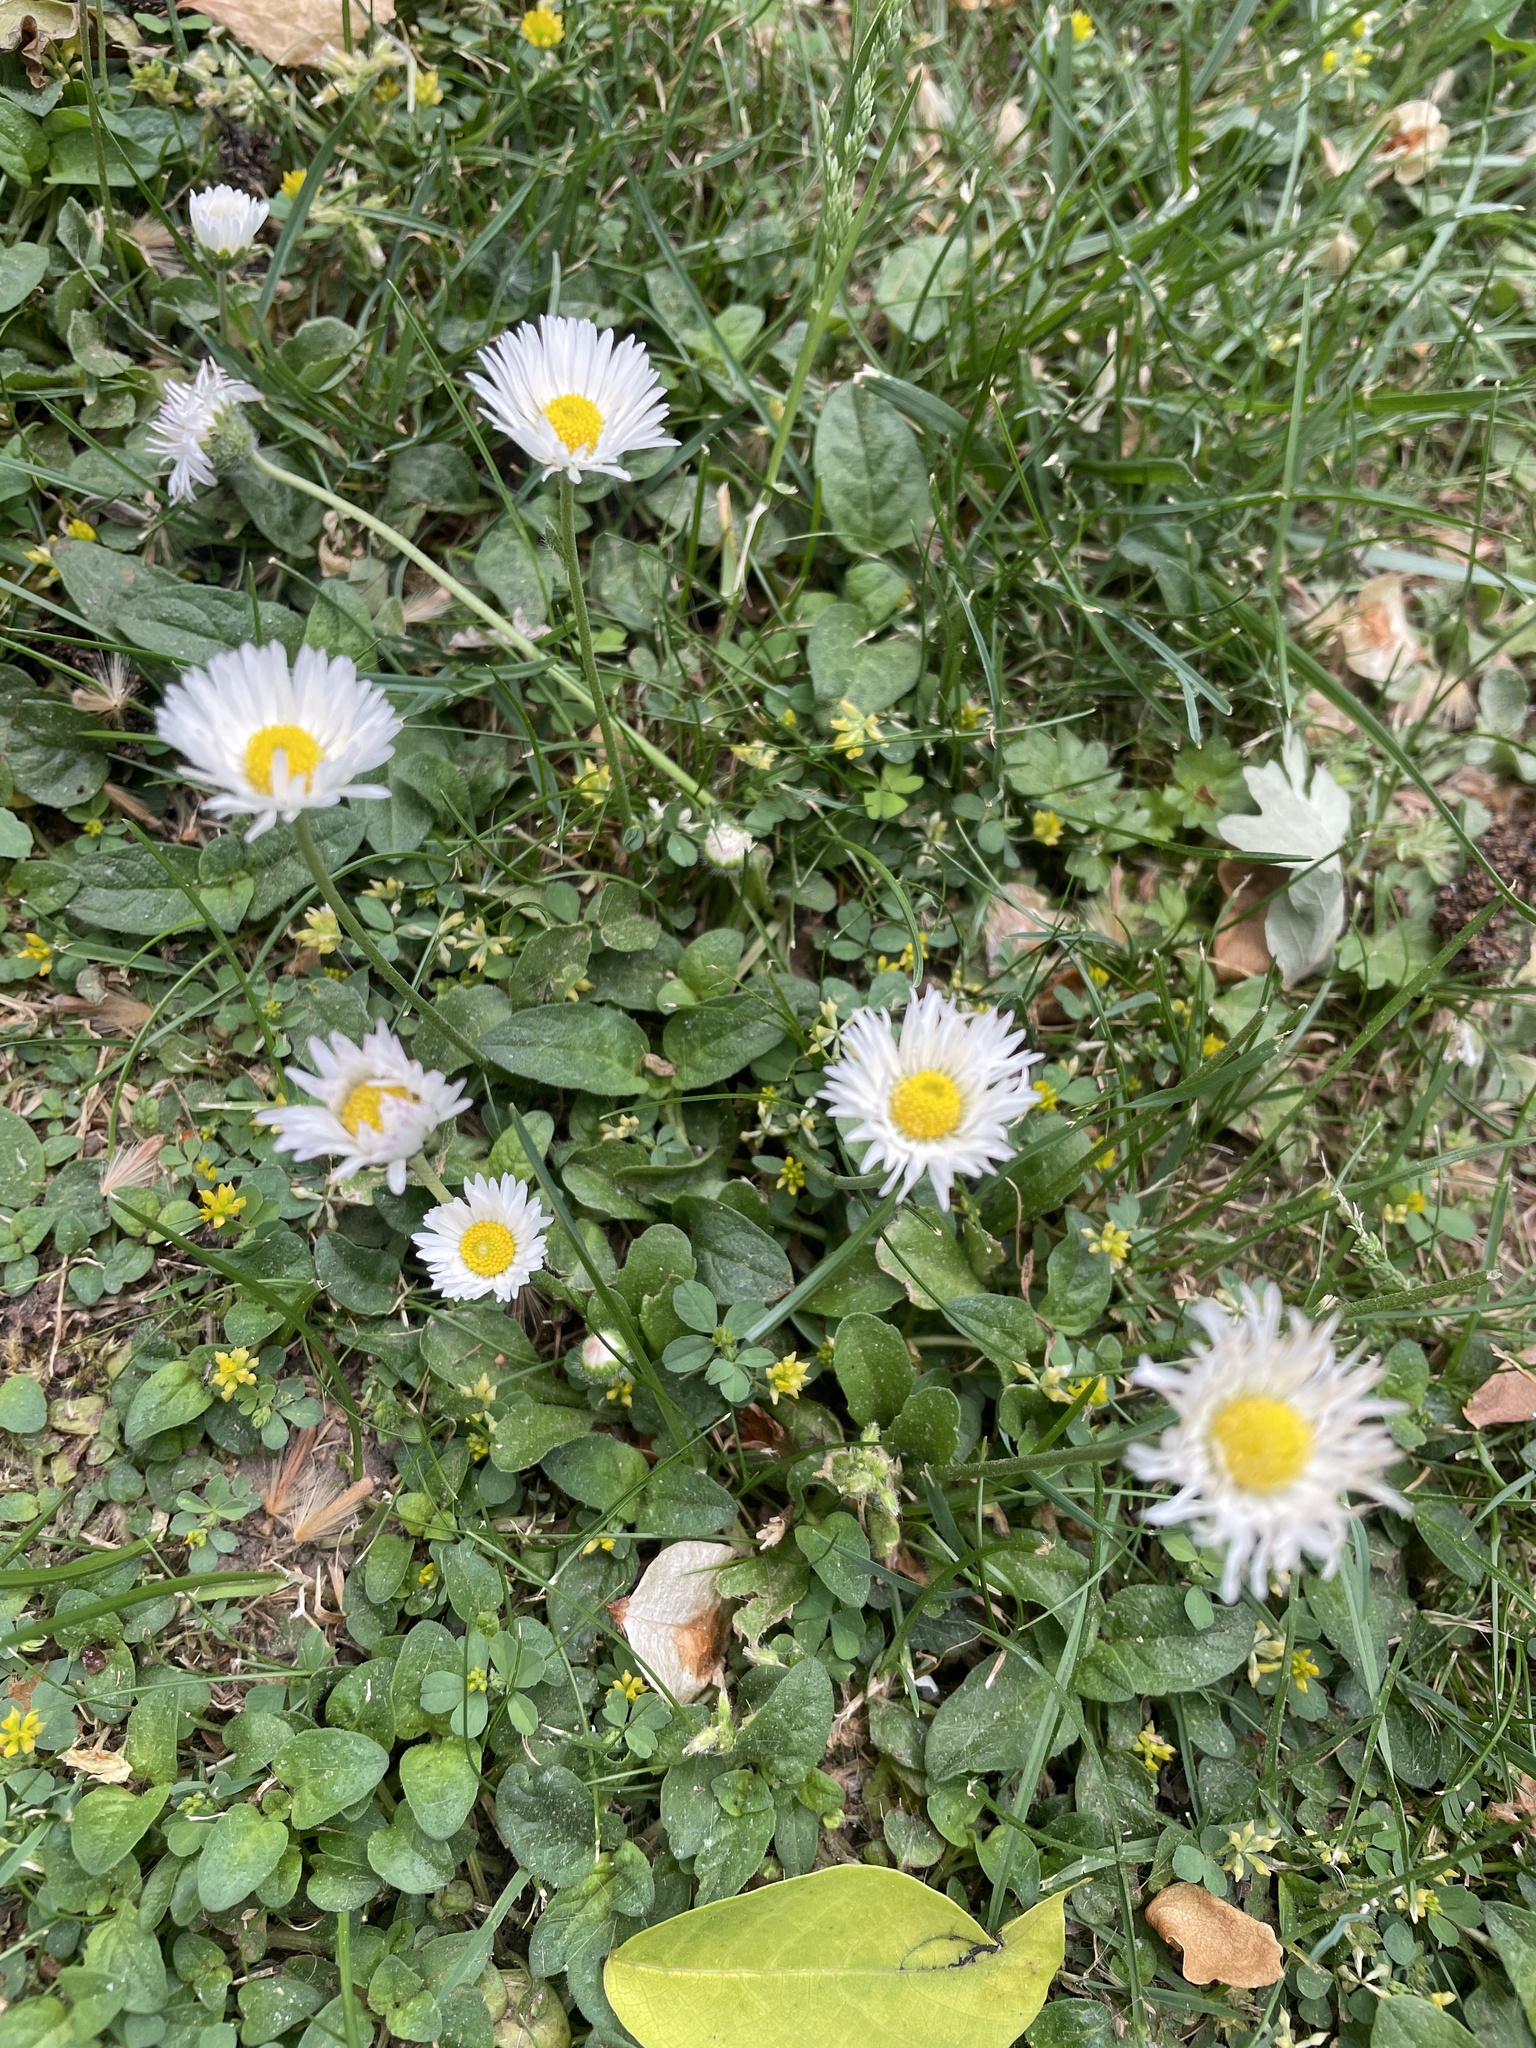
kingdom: Plantae
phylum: Tracheophyta
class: Magnoliopsida
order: Asterales
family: Asteraceae
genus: Bellis
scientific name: Bellis perennis
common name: Lawndaisy
